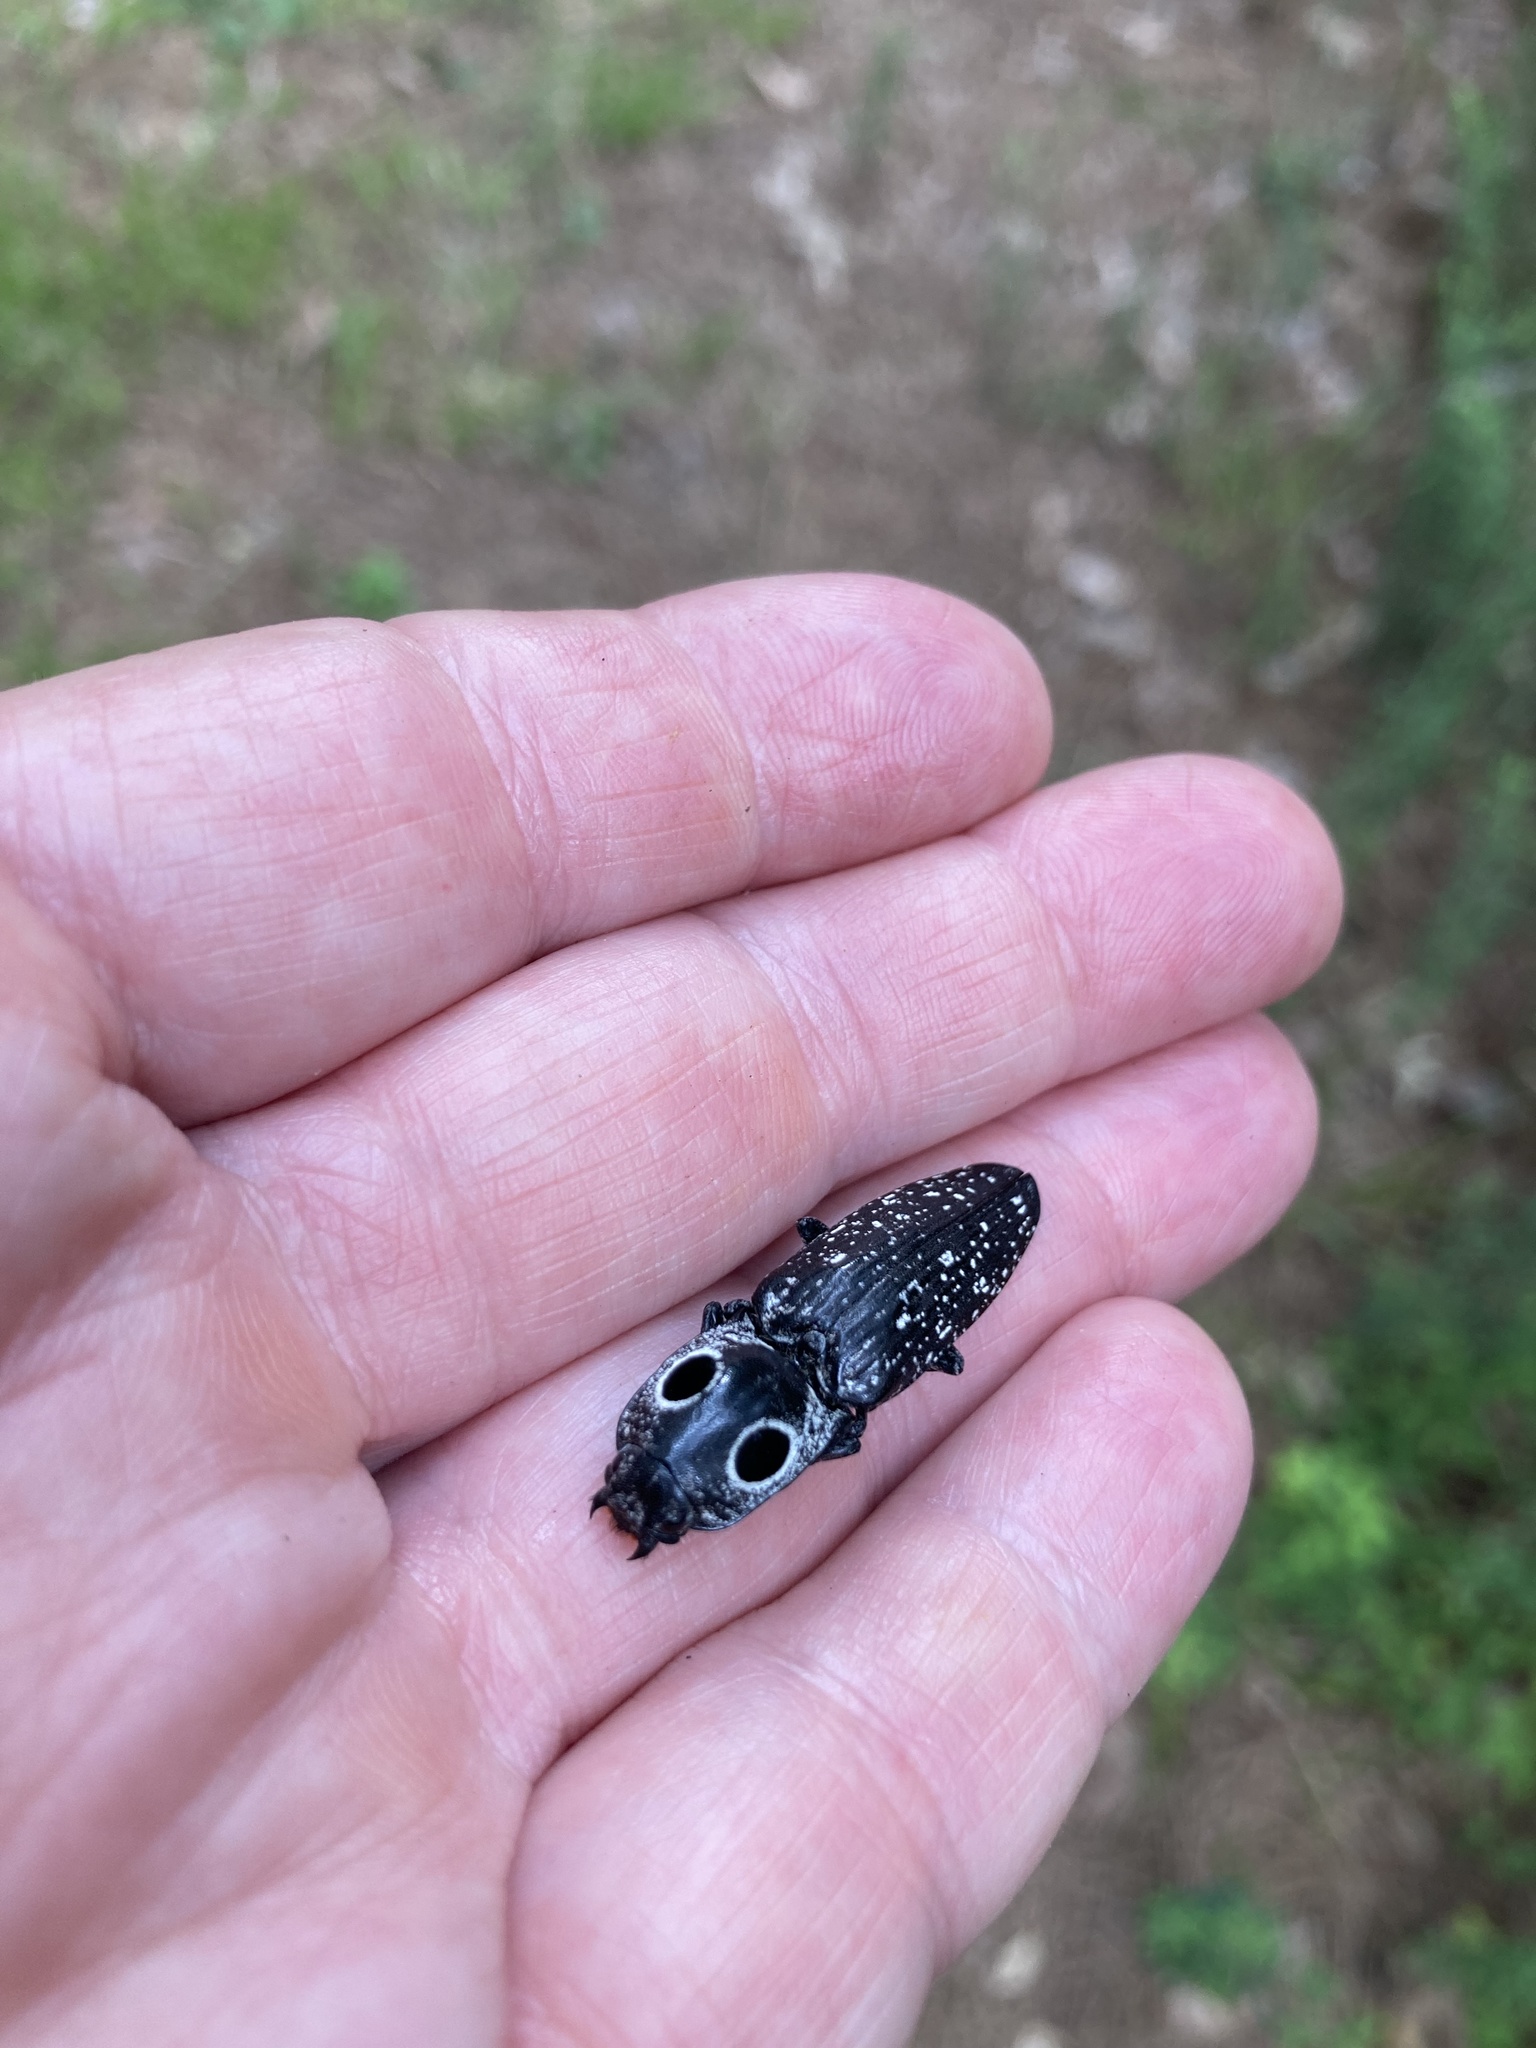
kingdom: Animalia
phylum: Arthropoda
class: Insecta
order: Coleoptera
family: Elateridae
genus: Alaus
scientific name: Alaus oculatus
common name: Eastern eyed click beetle
